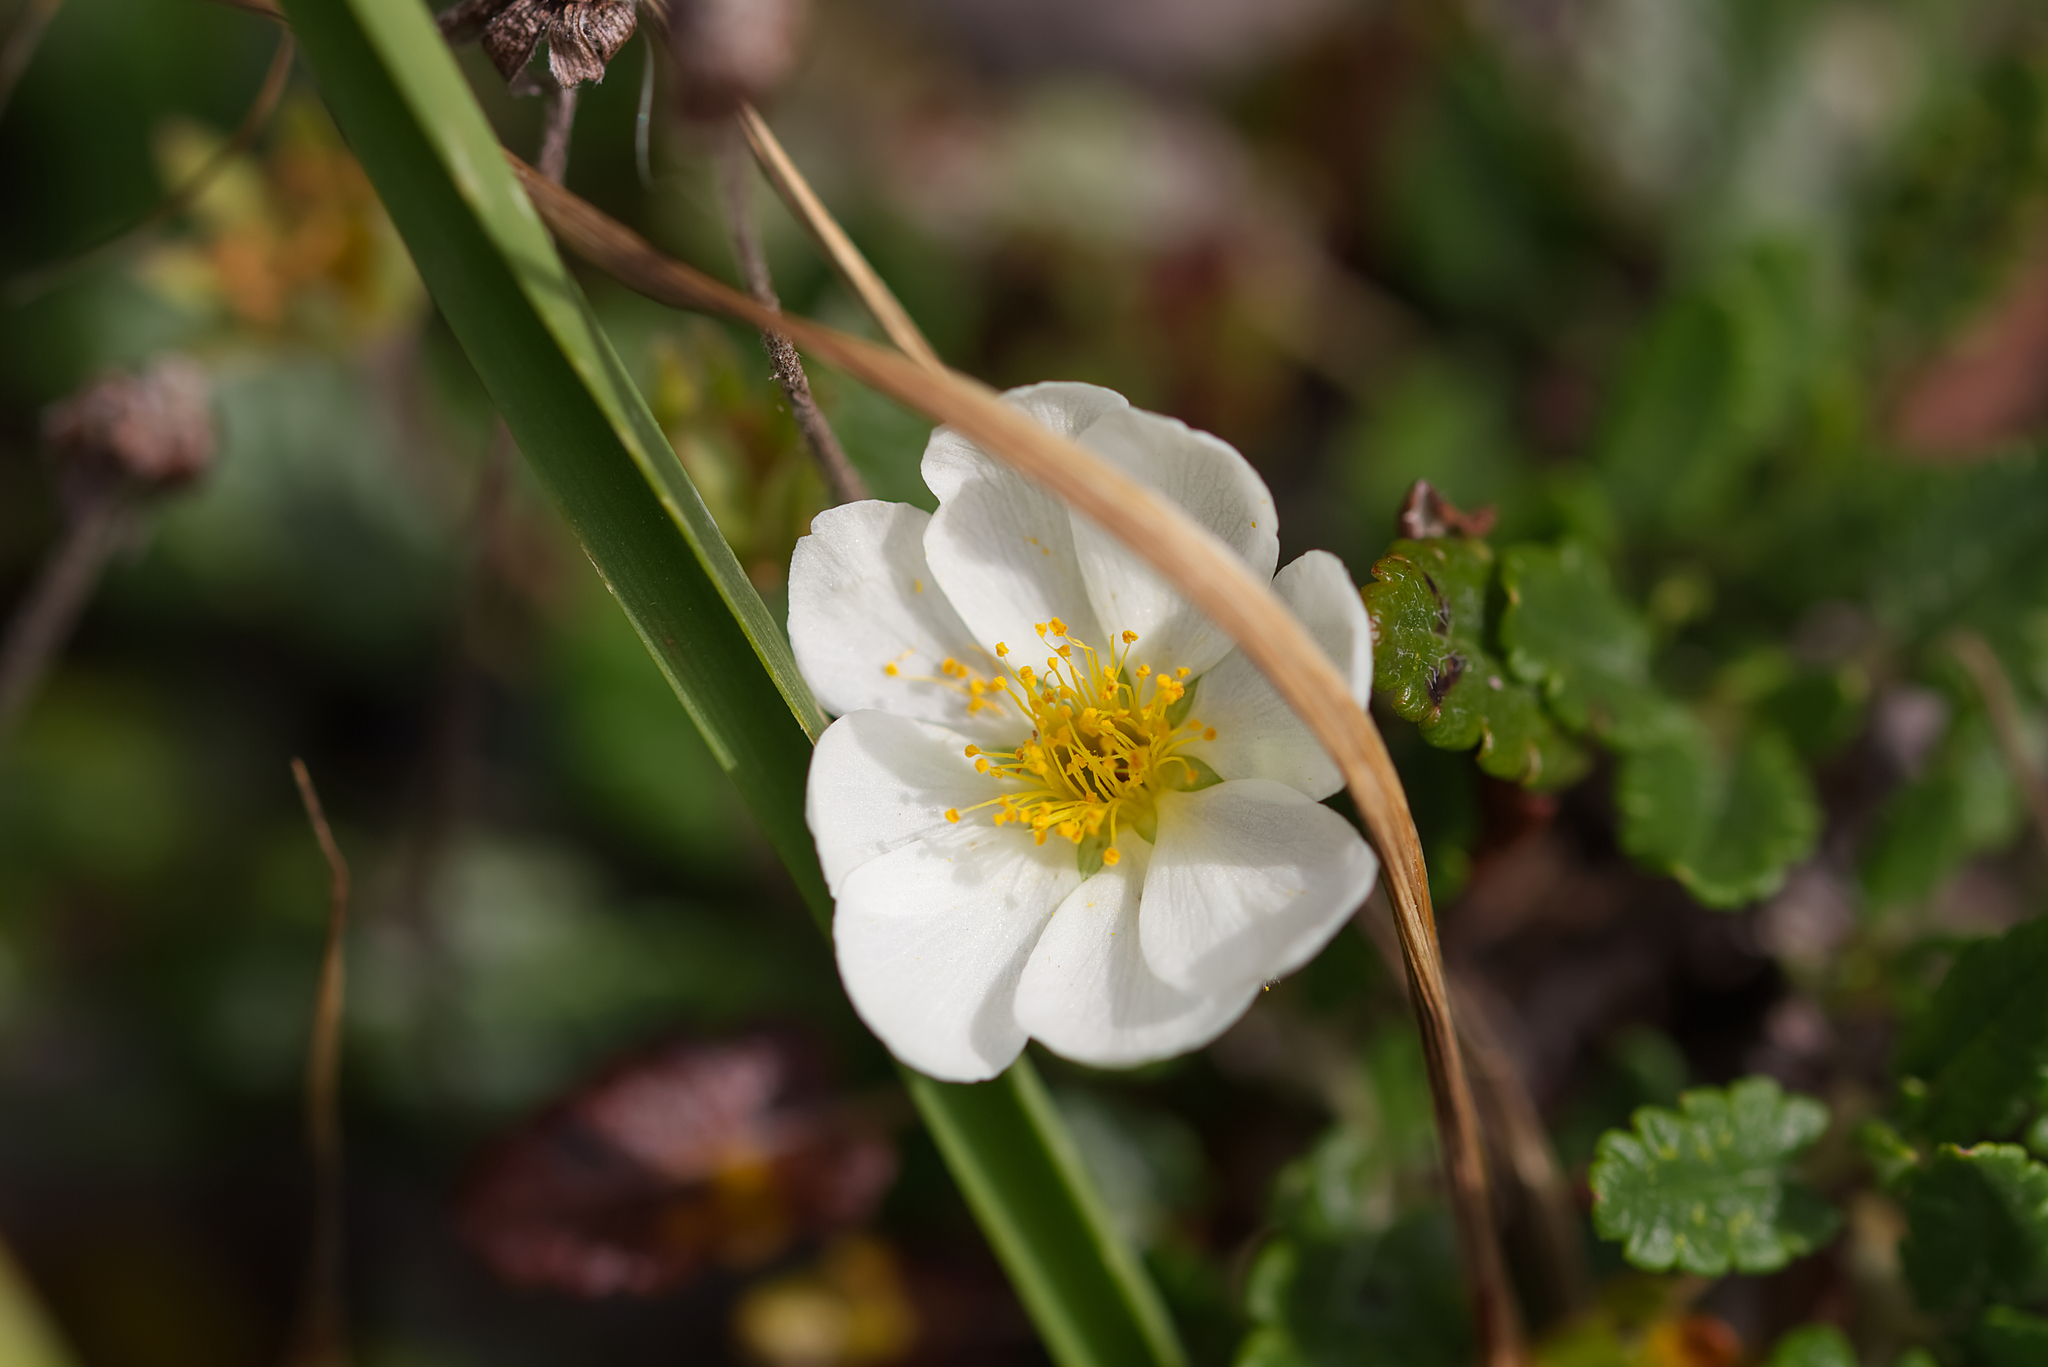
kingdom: Plantae
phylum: Tracheophyta
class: Magnoliopsida
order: Rosales
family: Rosaceae
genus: Dryas
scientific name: Dryas octopetala
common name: Eight-petal mountain-avens
